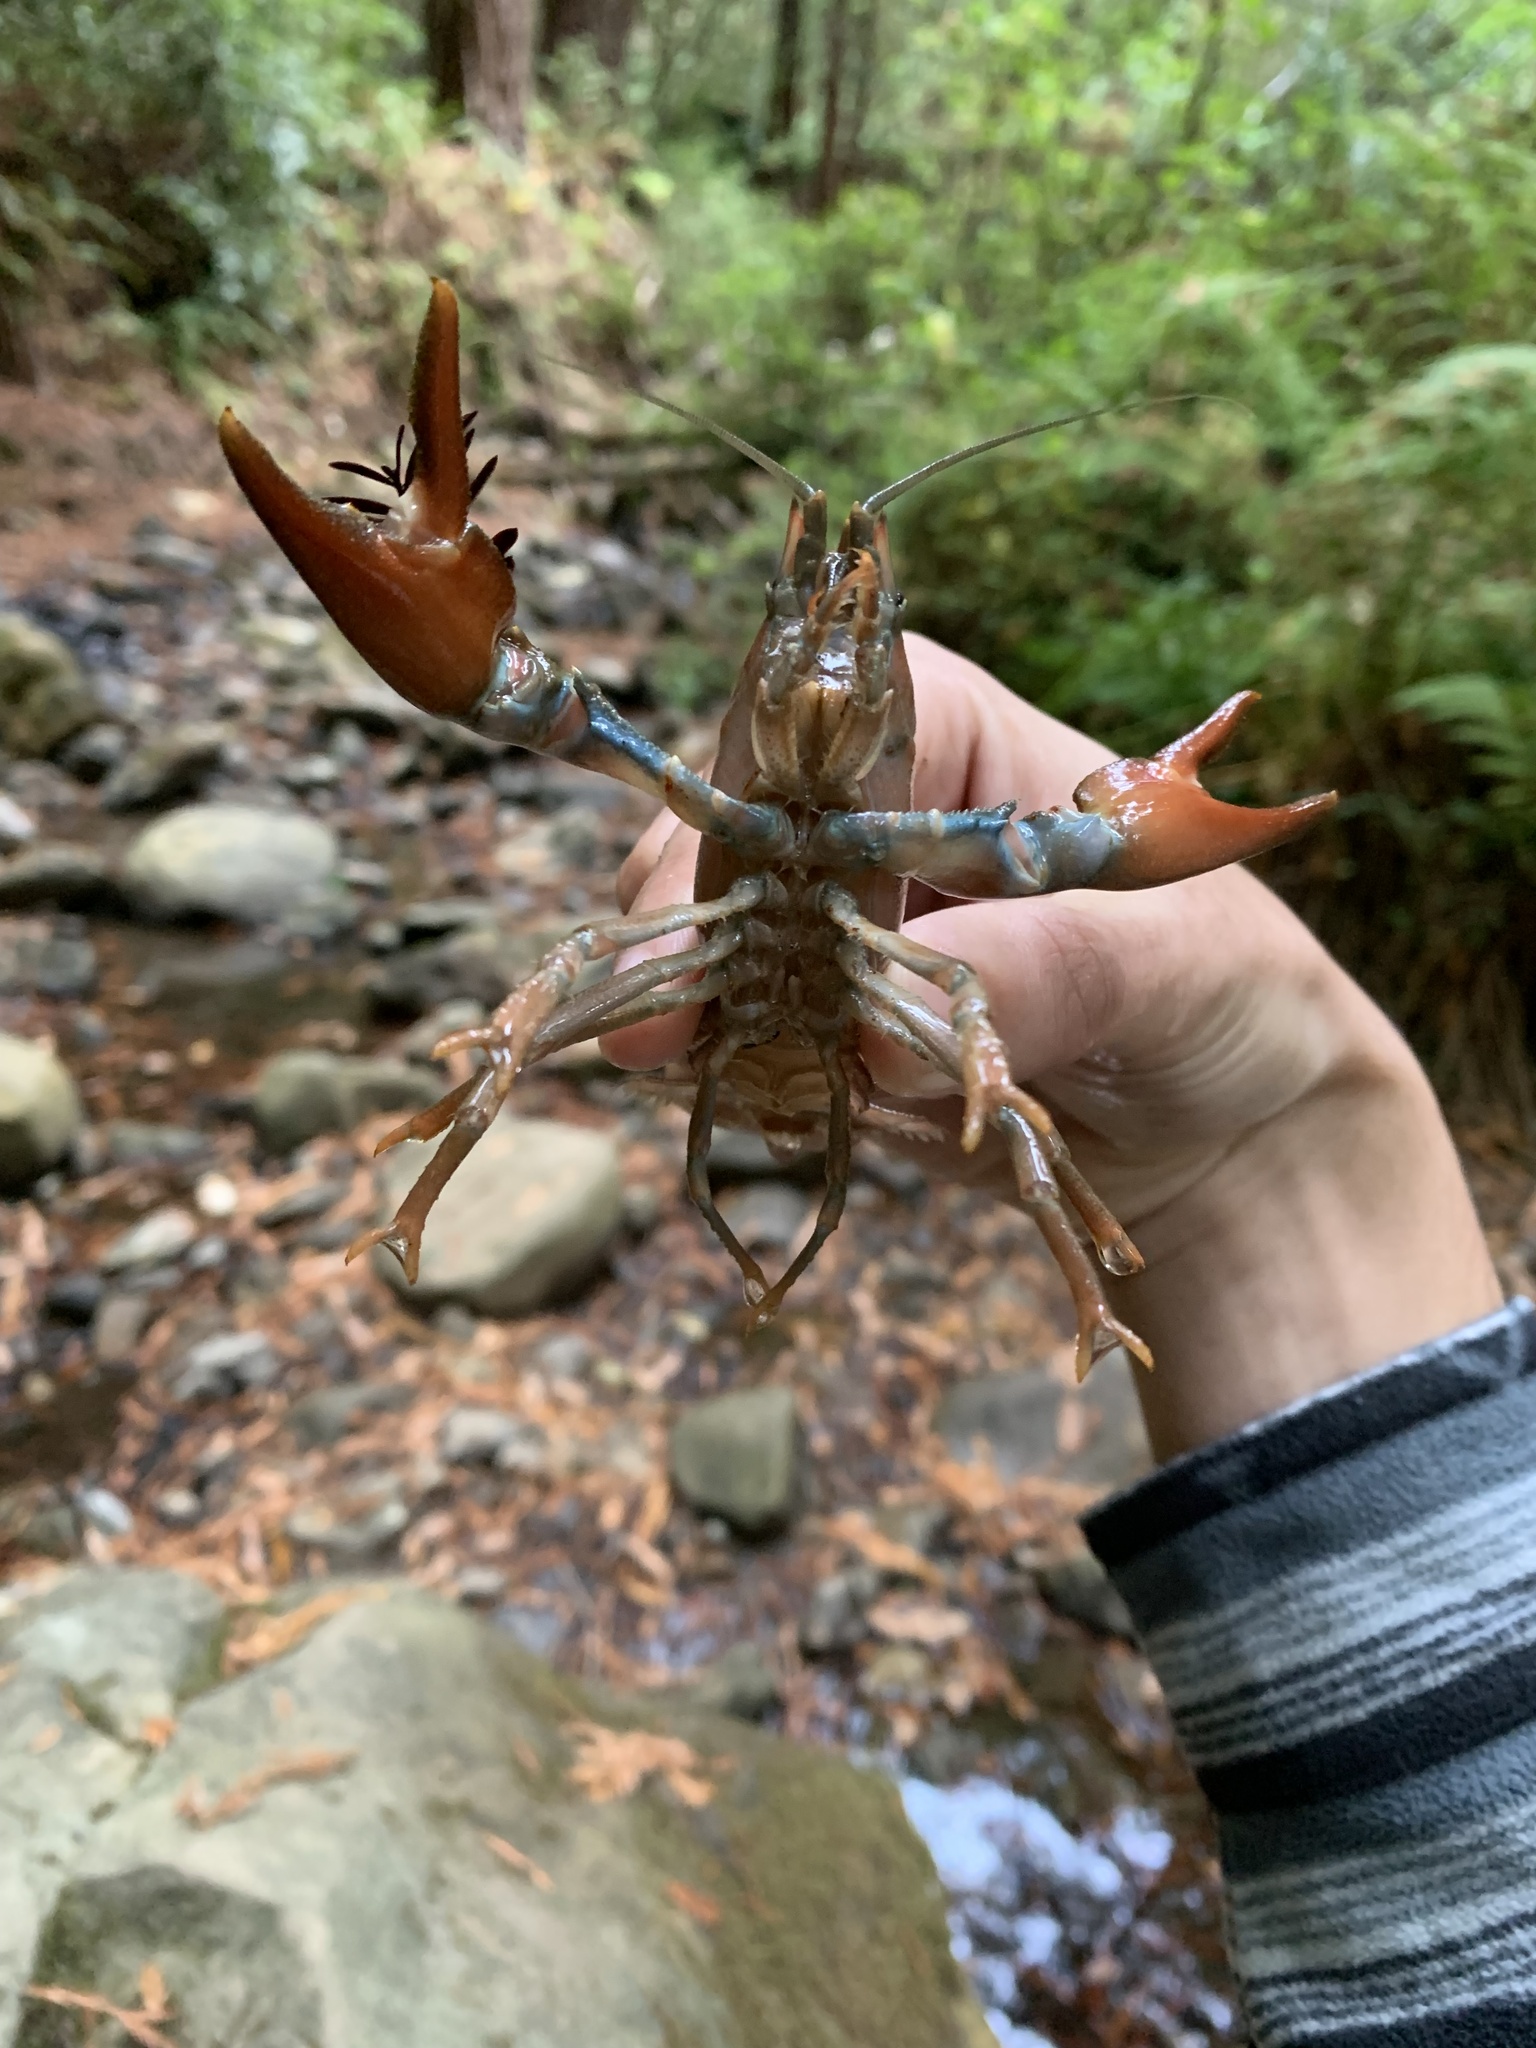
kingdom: Animalia
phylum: Arthropoda
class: Malacostraca
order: Decapoda
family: Astacidae
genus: Pacifastacus
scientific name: Pacifastacus leniusculus
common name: Signal crayfish
